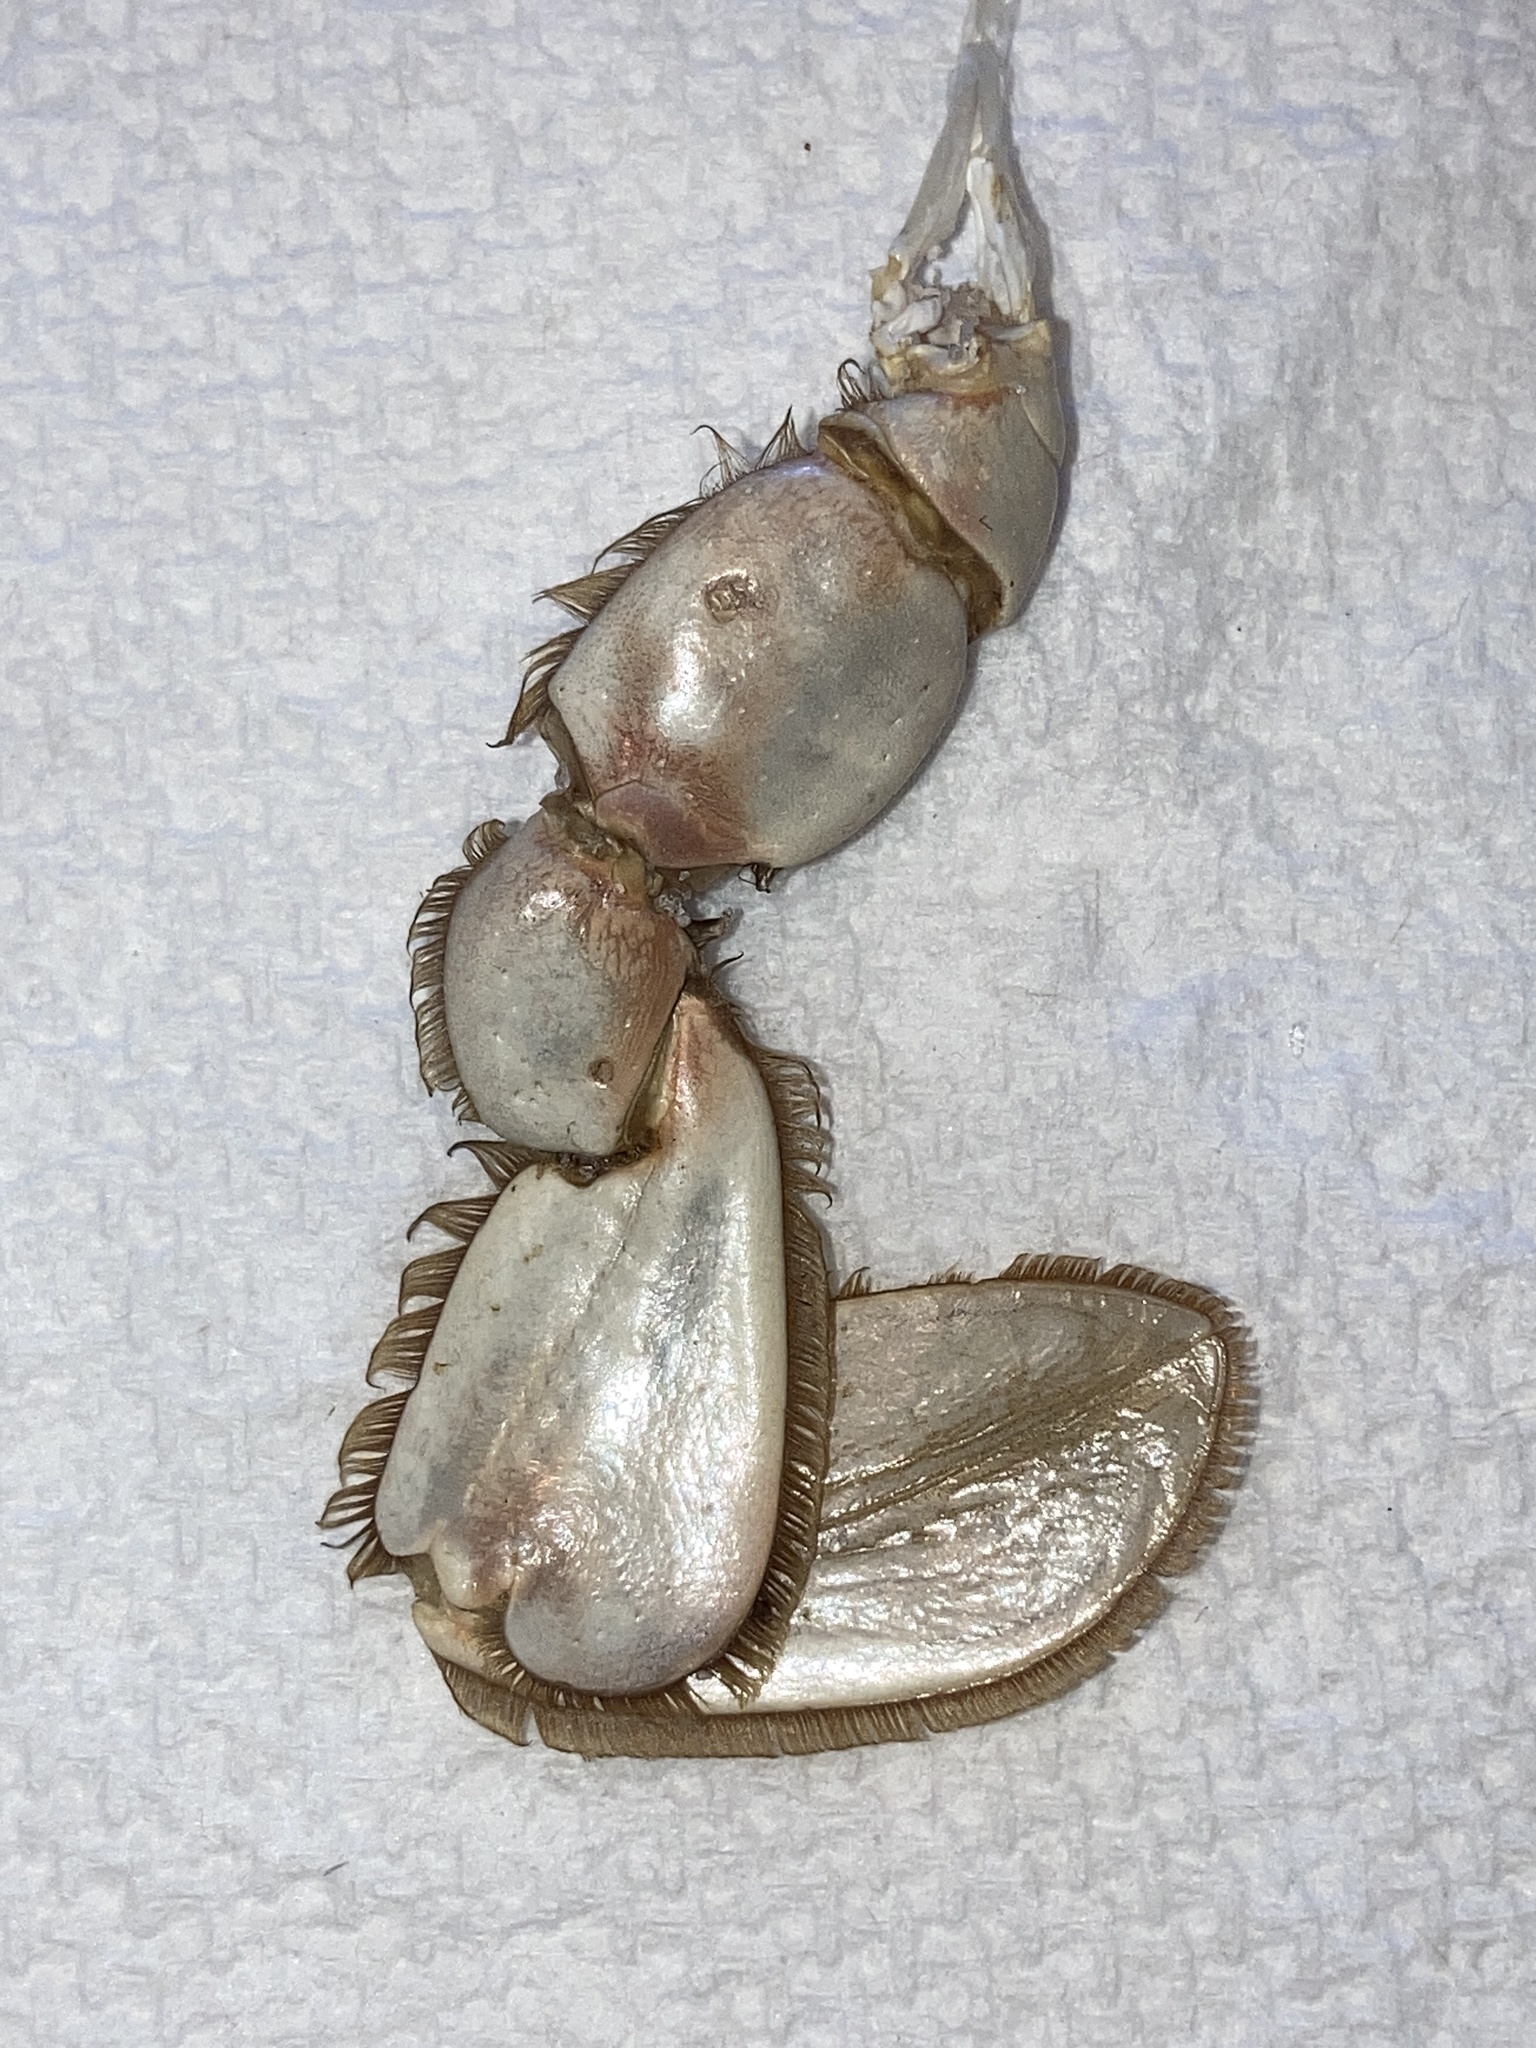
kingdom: Animalia
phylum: Arthropoda
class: Malacostraca
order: Decapoda
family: Portunidae
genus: Callinectes
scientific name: Callinectes sapidus
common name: Blue crab
